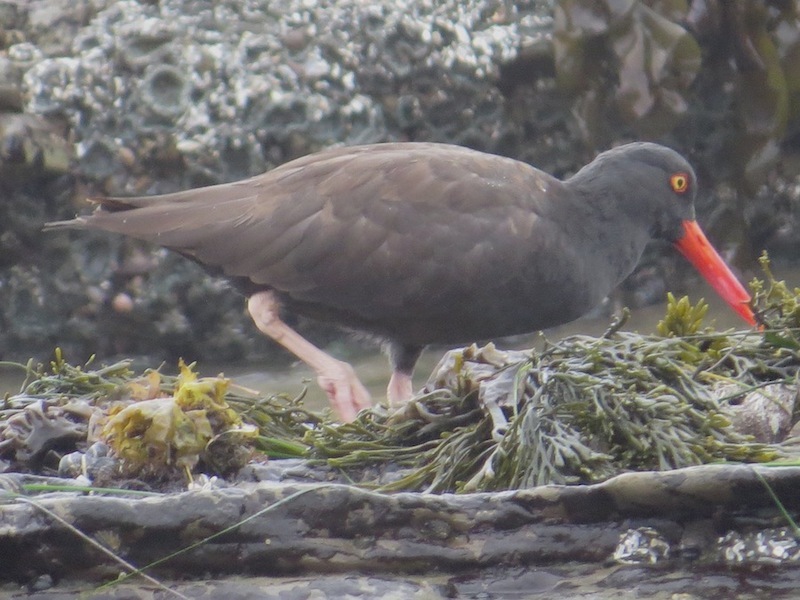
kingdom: Animalia
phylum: Chordata
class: Aves
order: Charadriiformes
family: Haematopodidae
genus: Haematopus
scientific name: Haematopus bachmani
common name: Black oystercatcher
